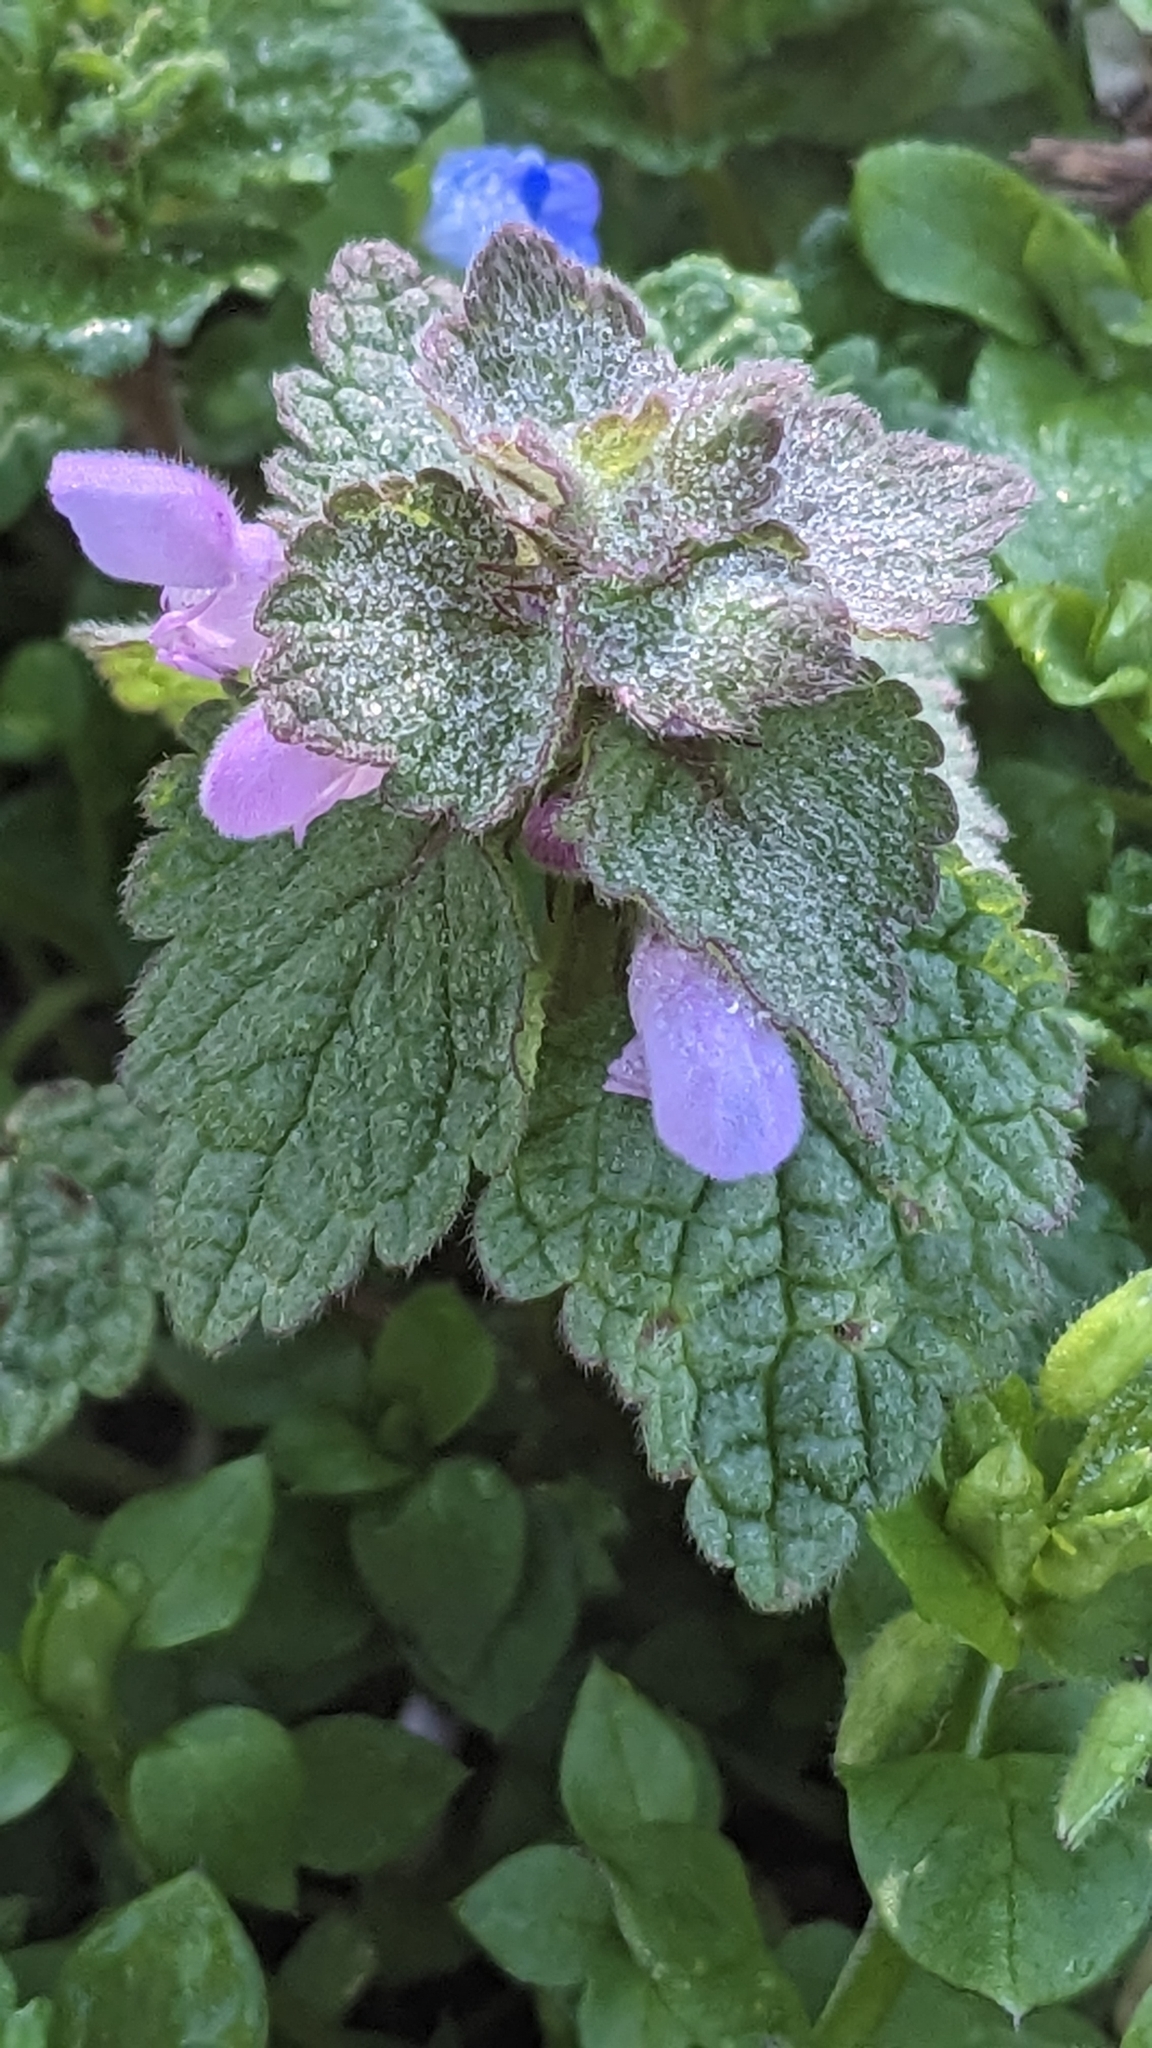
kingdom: Plantae
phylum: Tracheophyta
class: Magnoliopsida
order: Lamiales
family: Lamiaceae
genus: Lamium
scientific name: Lamium purpureum
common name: Red dead-nettle
